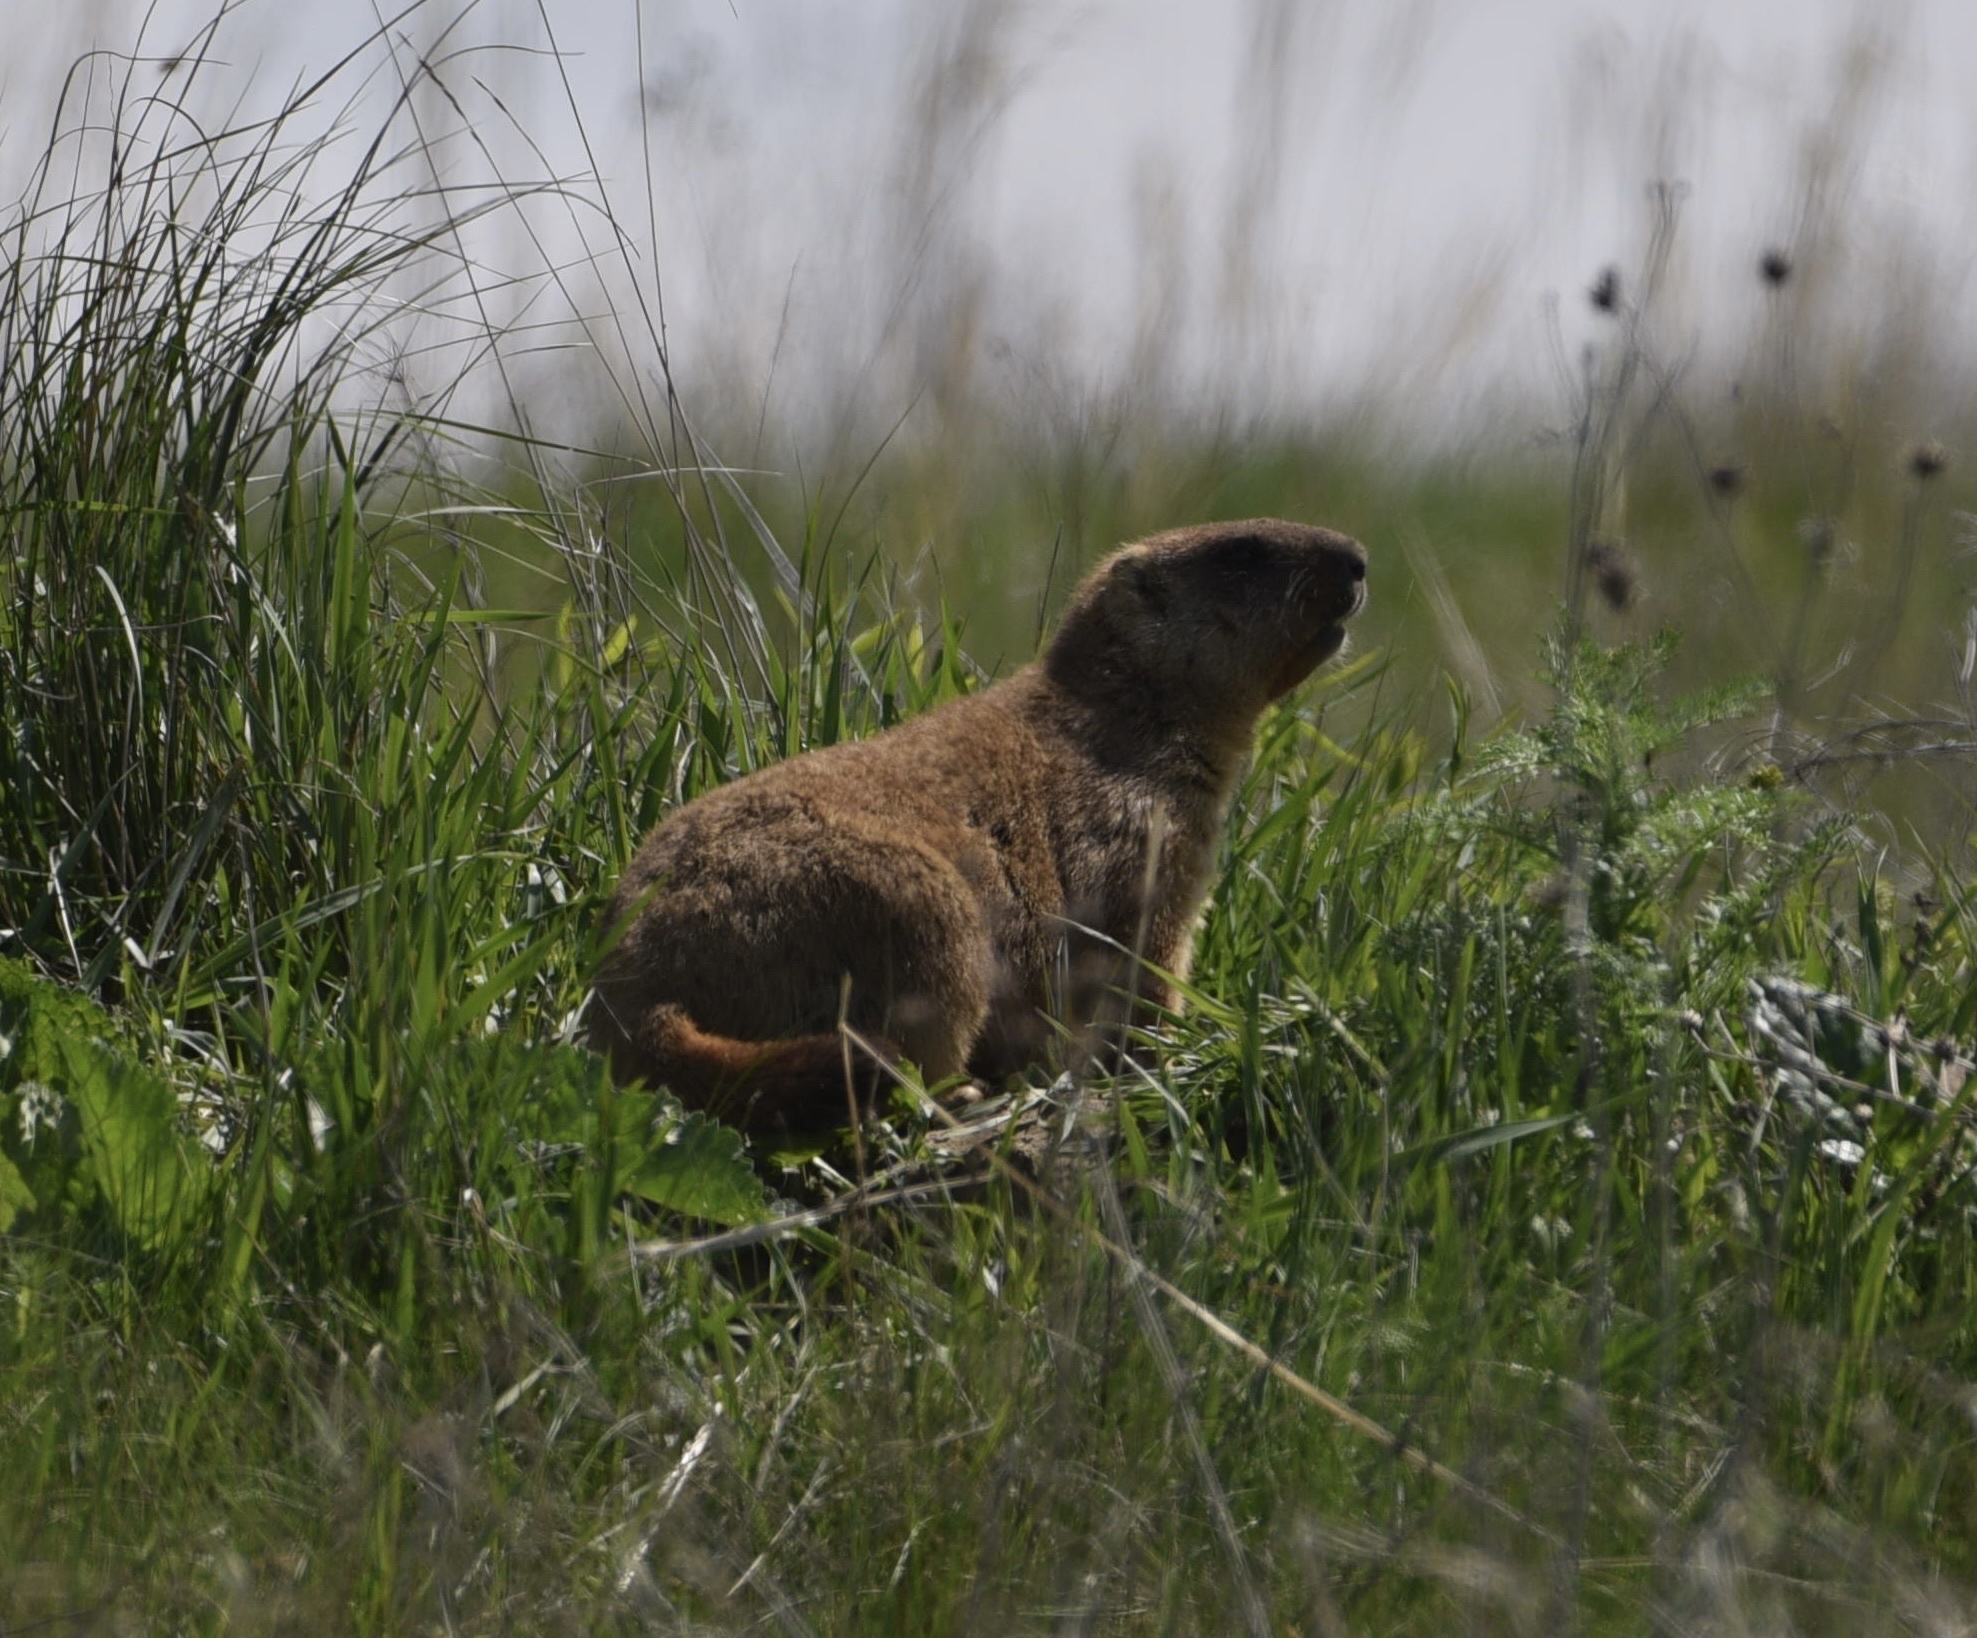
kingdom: Animalia
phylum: Chordata
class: Mammalia
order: Rodentia
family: Sciuridae
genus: Marmota
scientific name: Marmota bobak
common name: Bobak marmot
